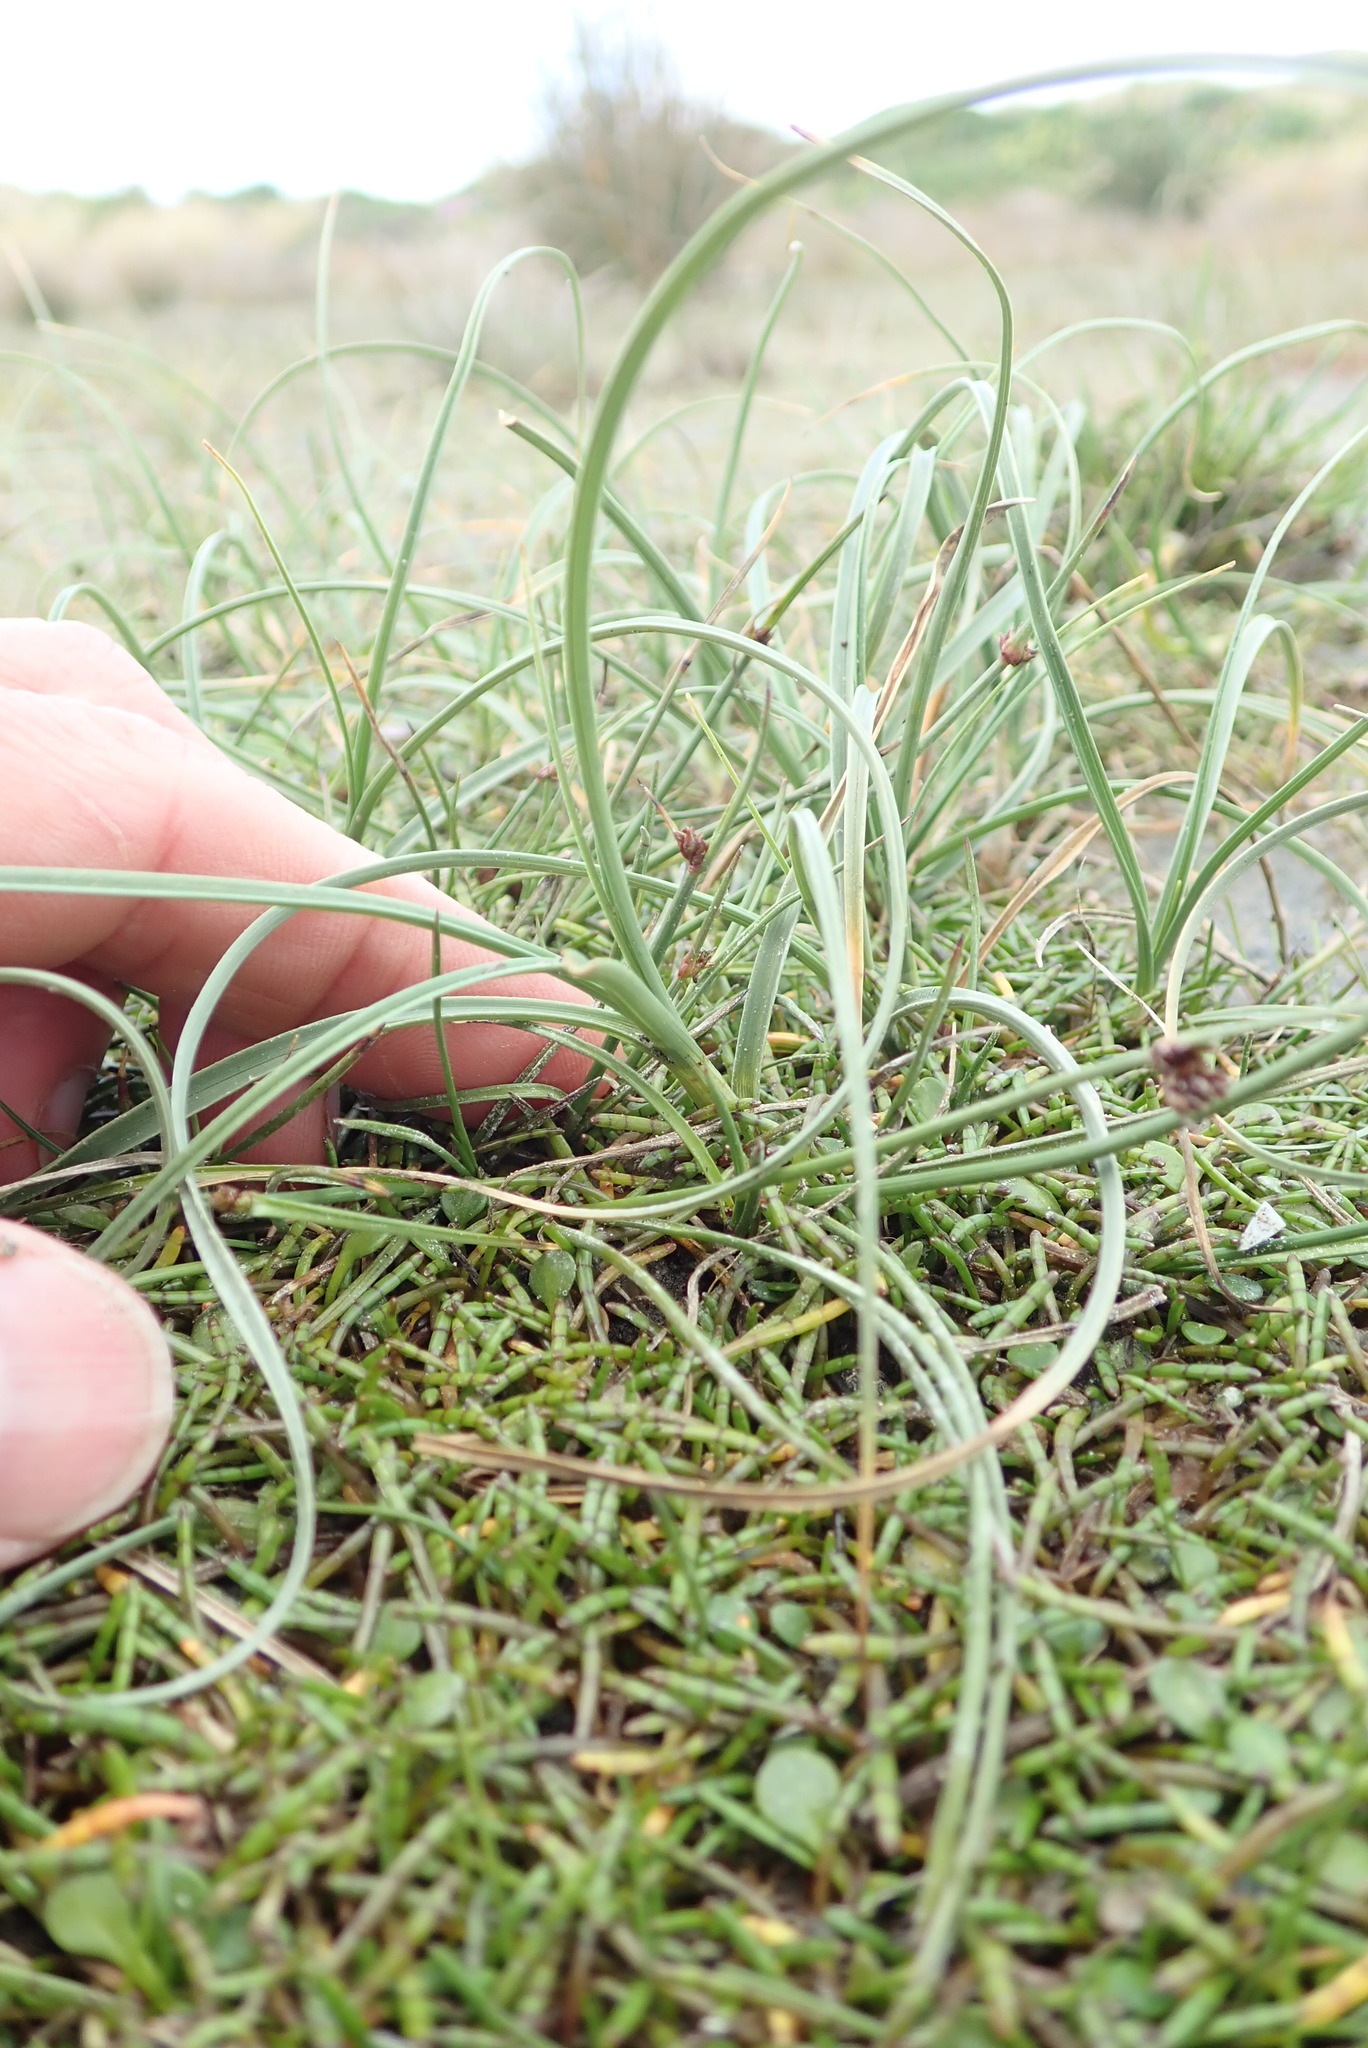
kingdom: Plantae
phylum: Tracheophyta
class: Liliopsida
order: Poales
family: Cyperaceae
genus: Carex
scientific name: Carex pumila
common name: Dwarf sedge
